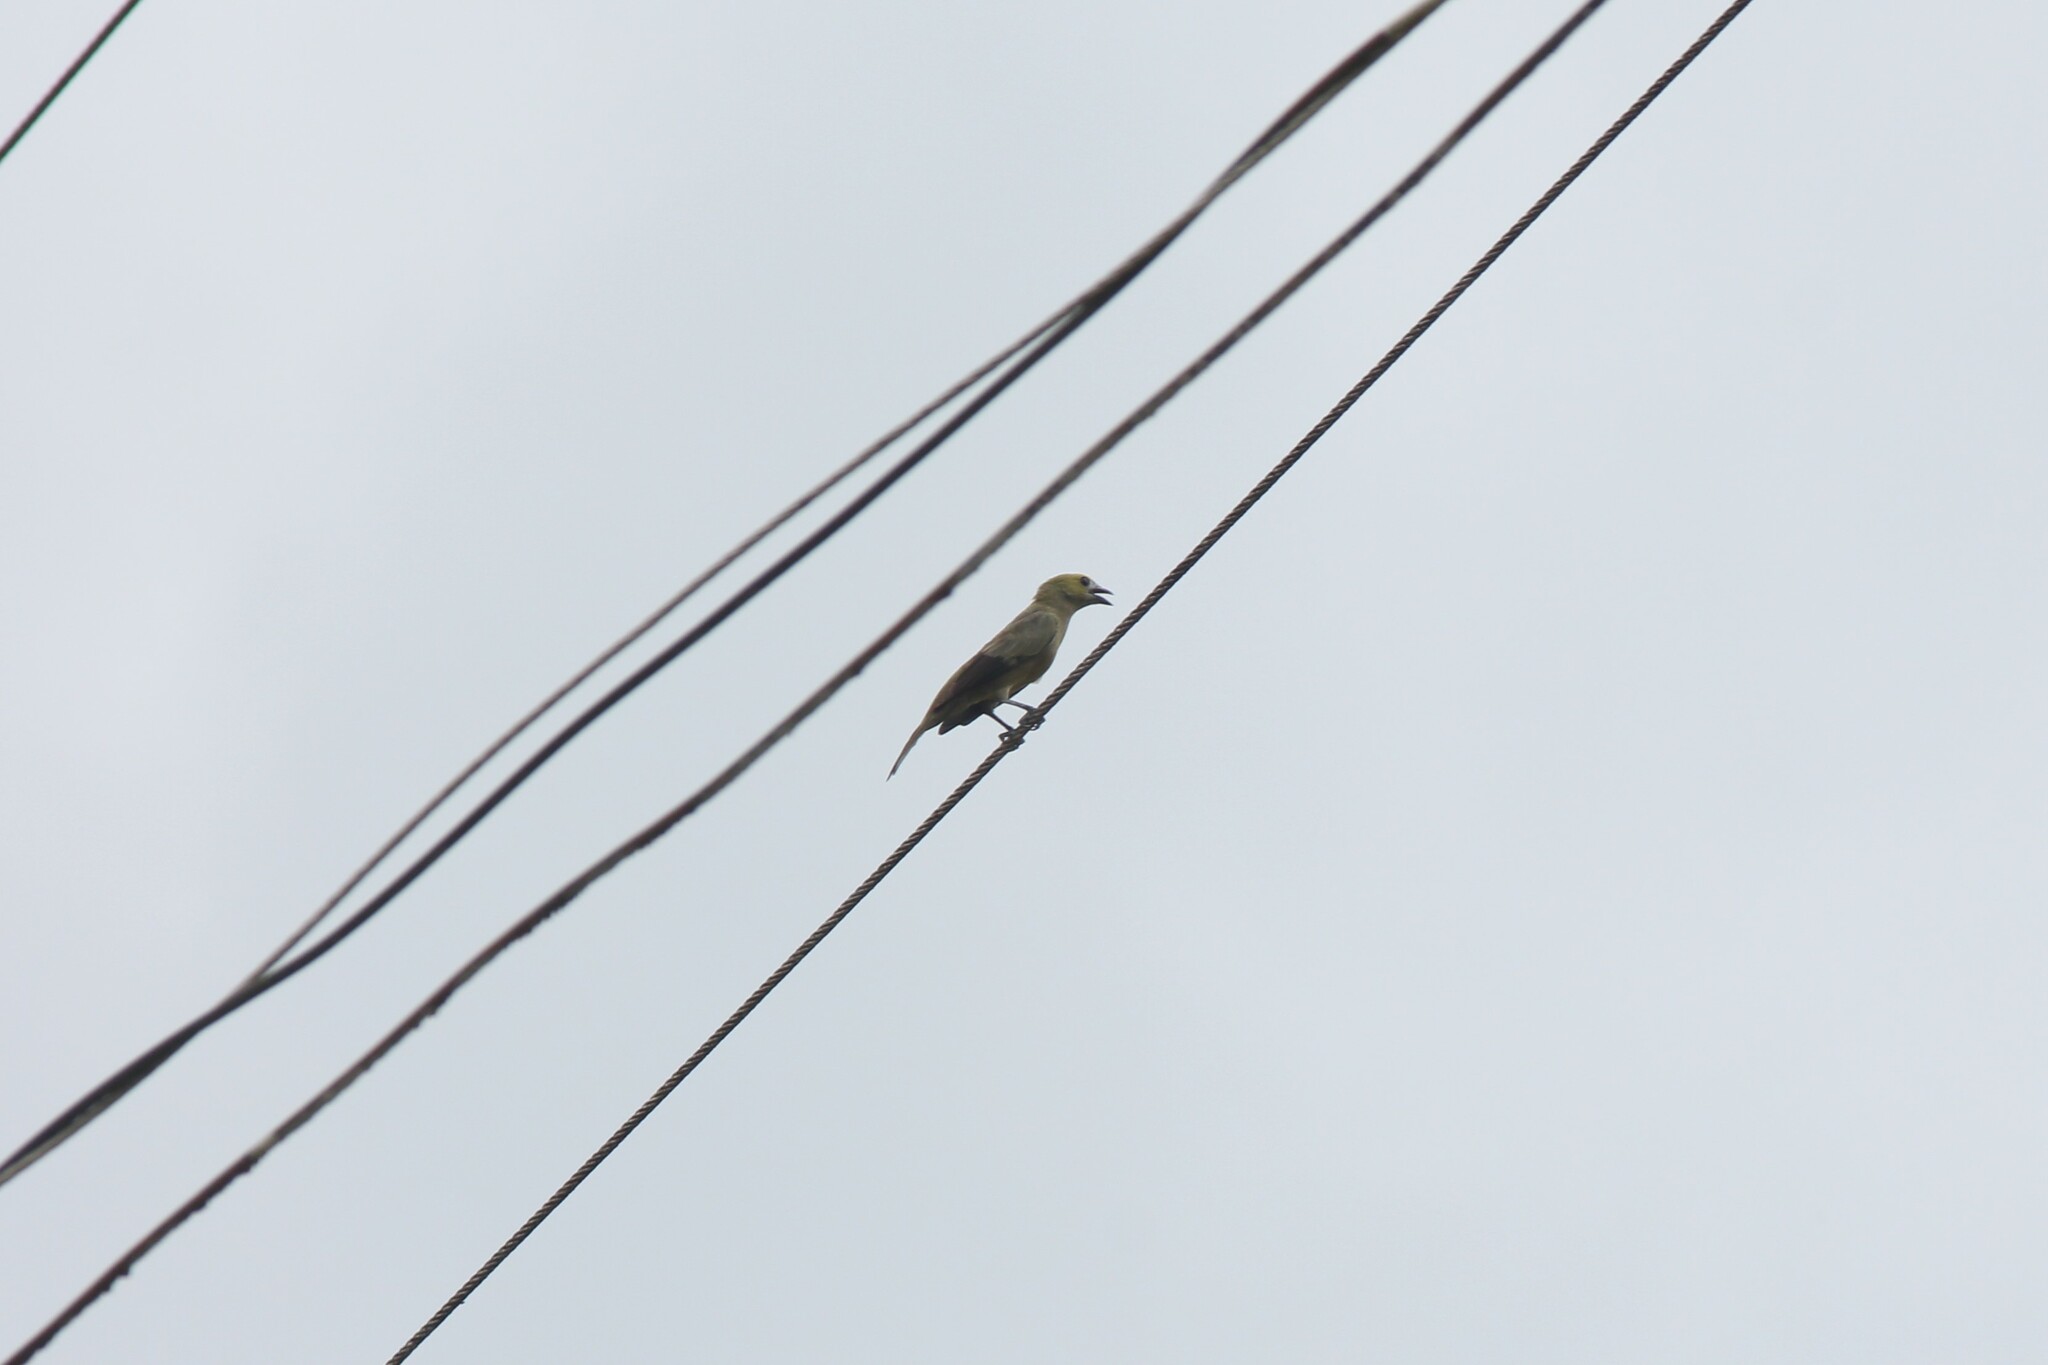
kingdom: Animalia
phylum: Chordata
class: Aves
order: Passeriformes
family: Thraupidae
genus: Thraupis
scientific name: Thraupis palmarum
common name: Palm tanager
